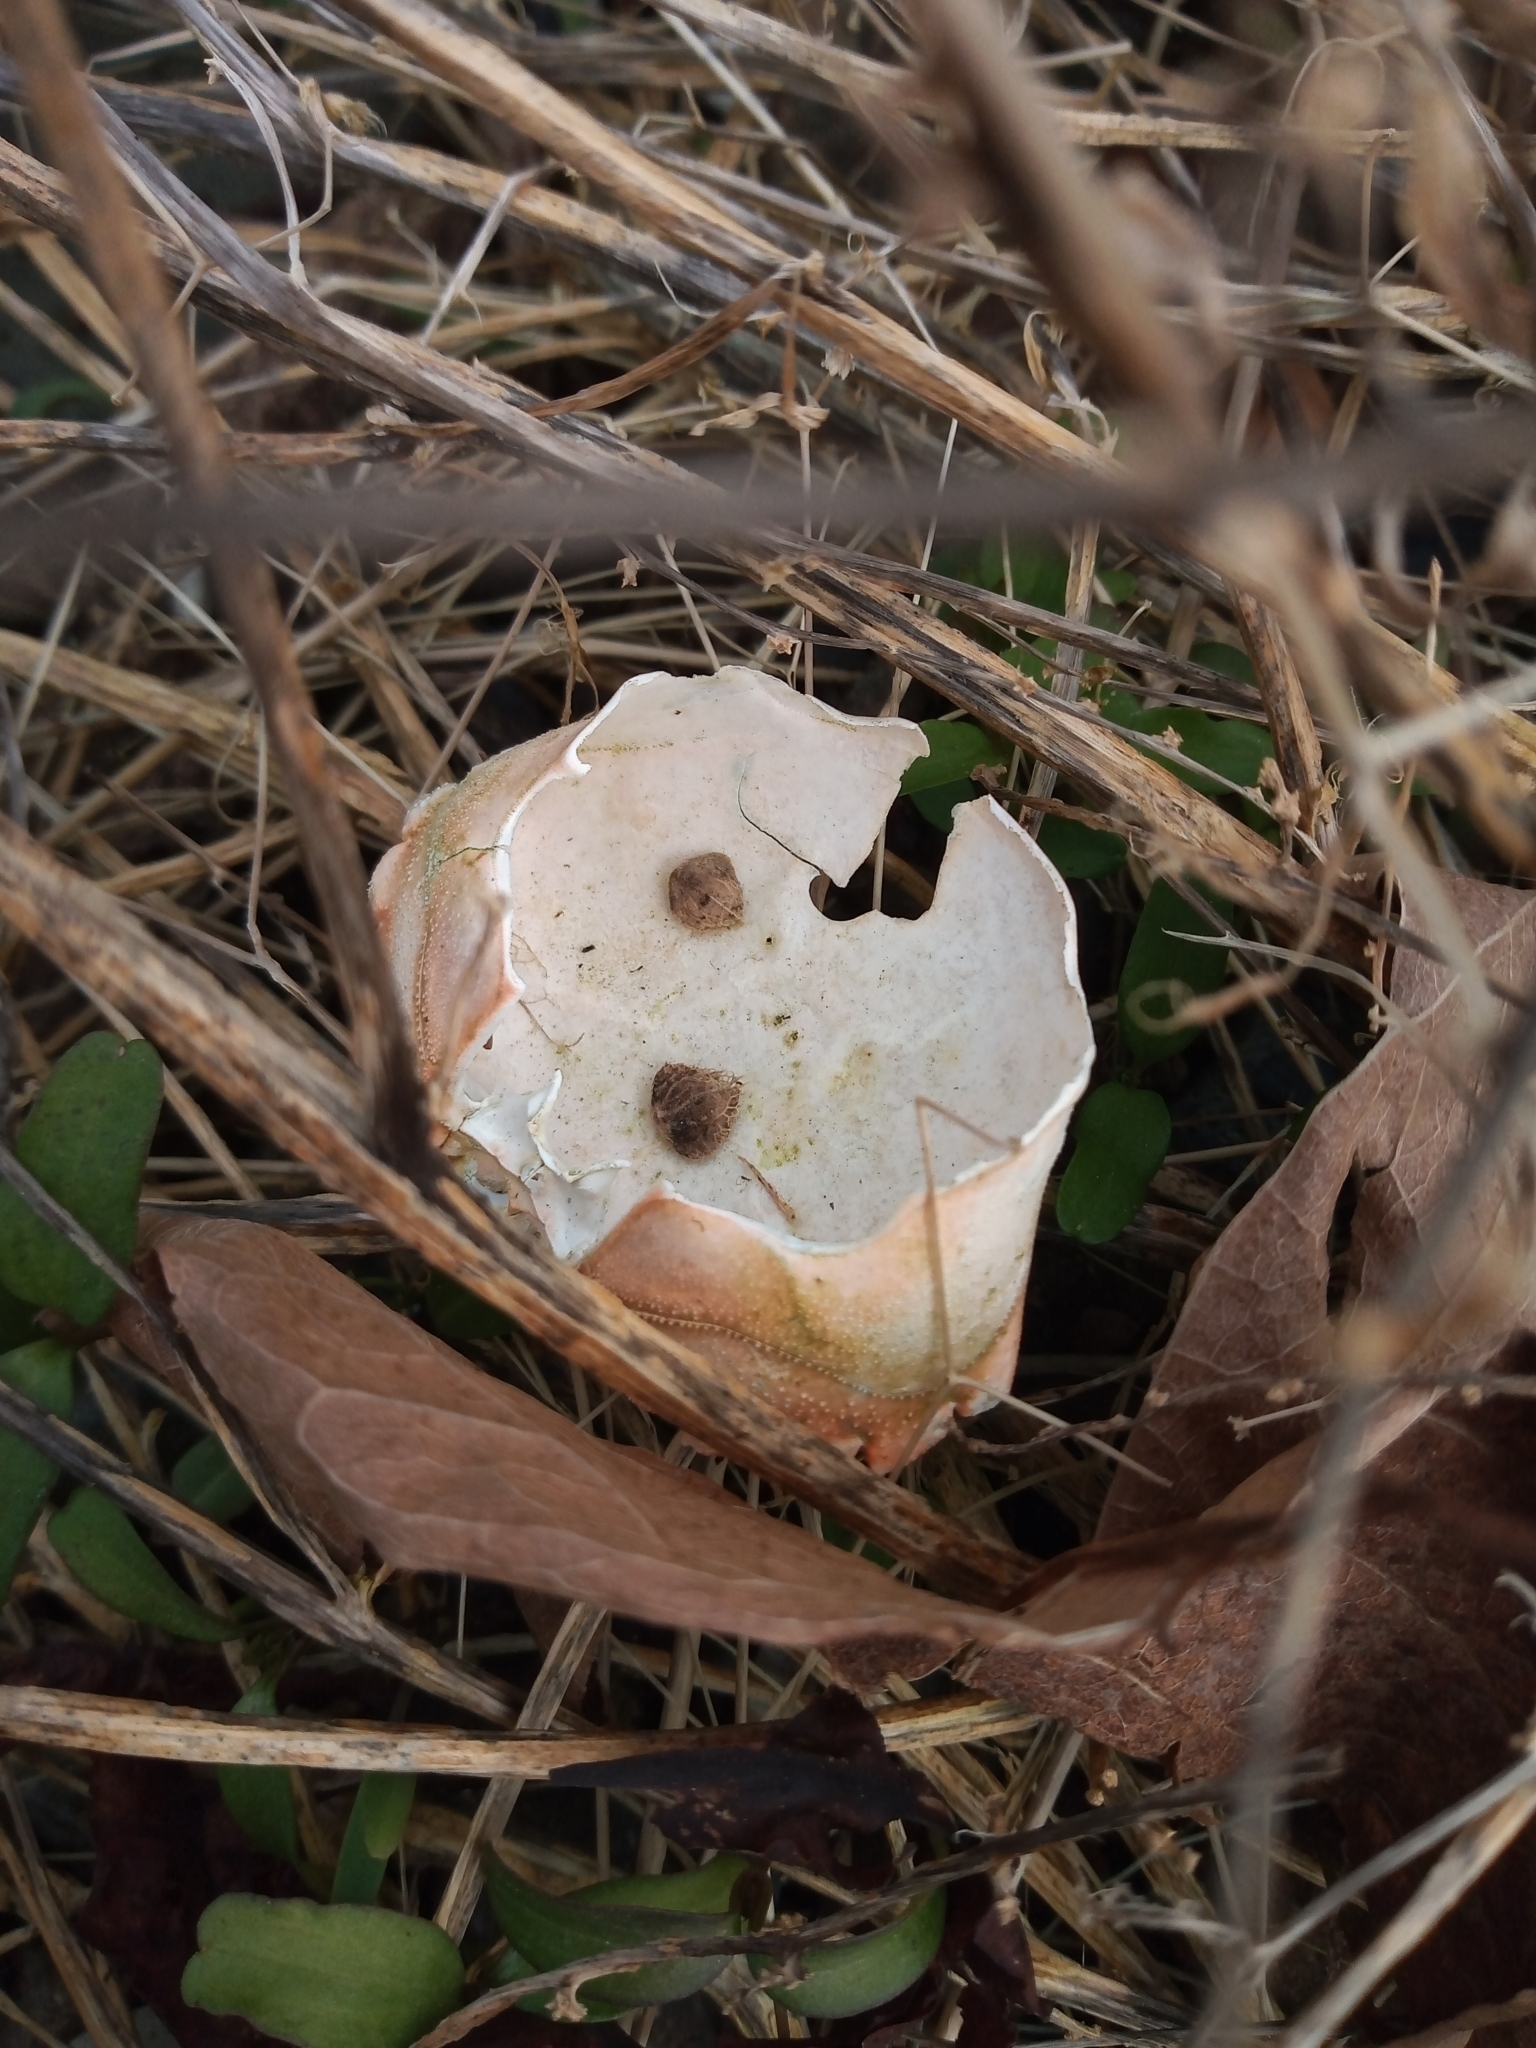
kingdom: Animalia
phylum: Arthropoda
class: Malacostraca
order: Decapoda
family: Carcinidae
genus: Carcinus
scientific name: Carcinus maenas
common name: European green crab
